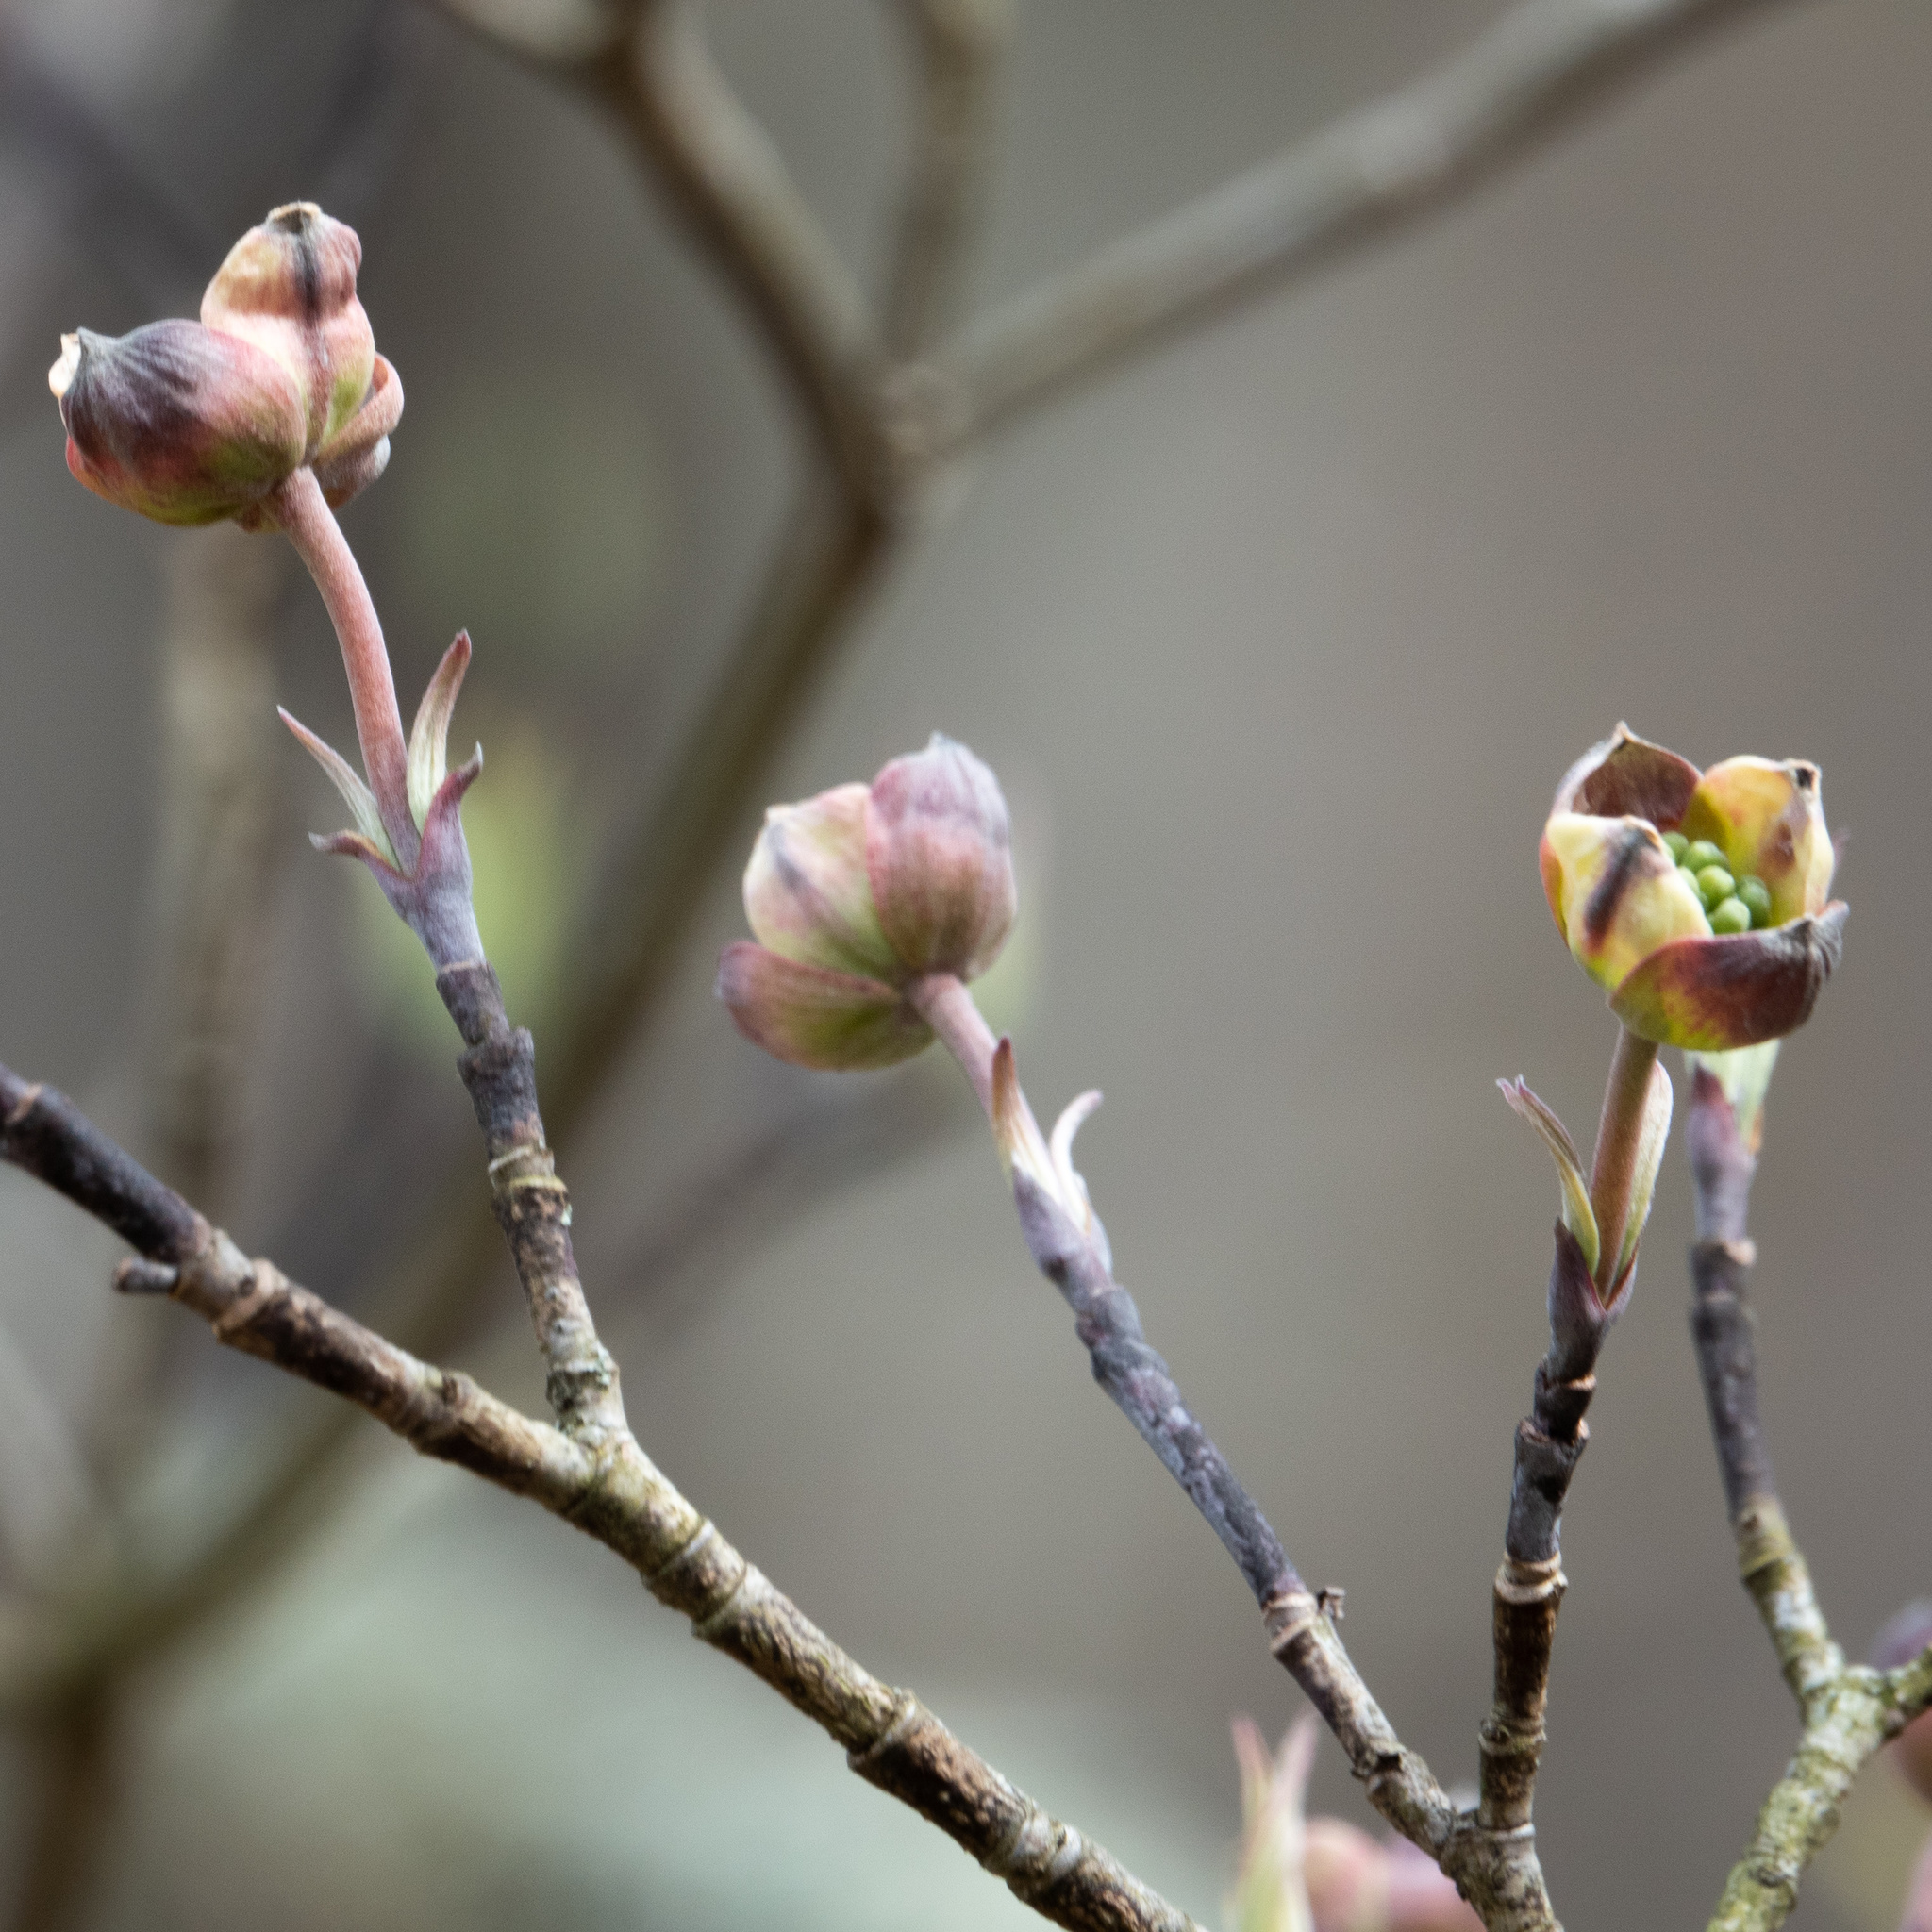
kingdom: Plantae
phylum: Tracheophyta
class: Magnoliopsida
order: Cornales
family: Cornaceae
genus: Cornus
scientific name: Cornus florida
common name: Flowering dogwood
